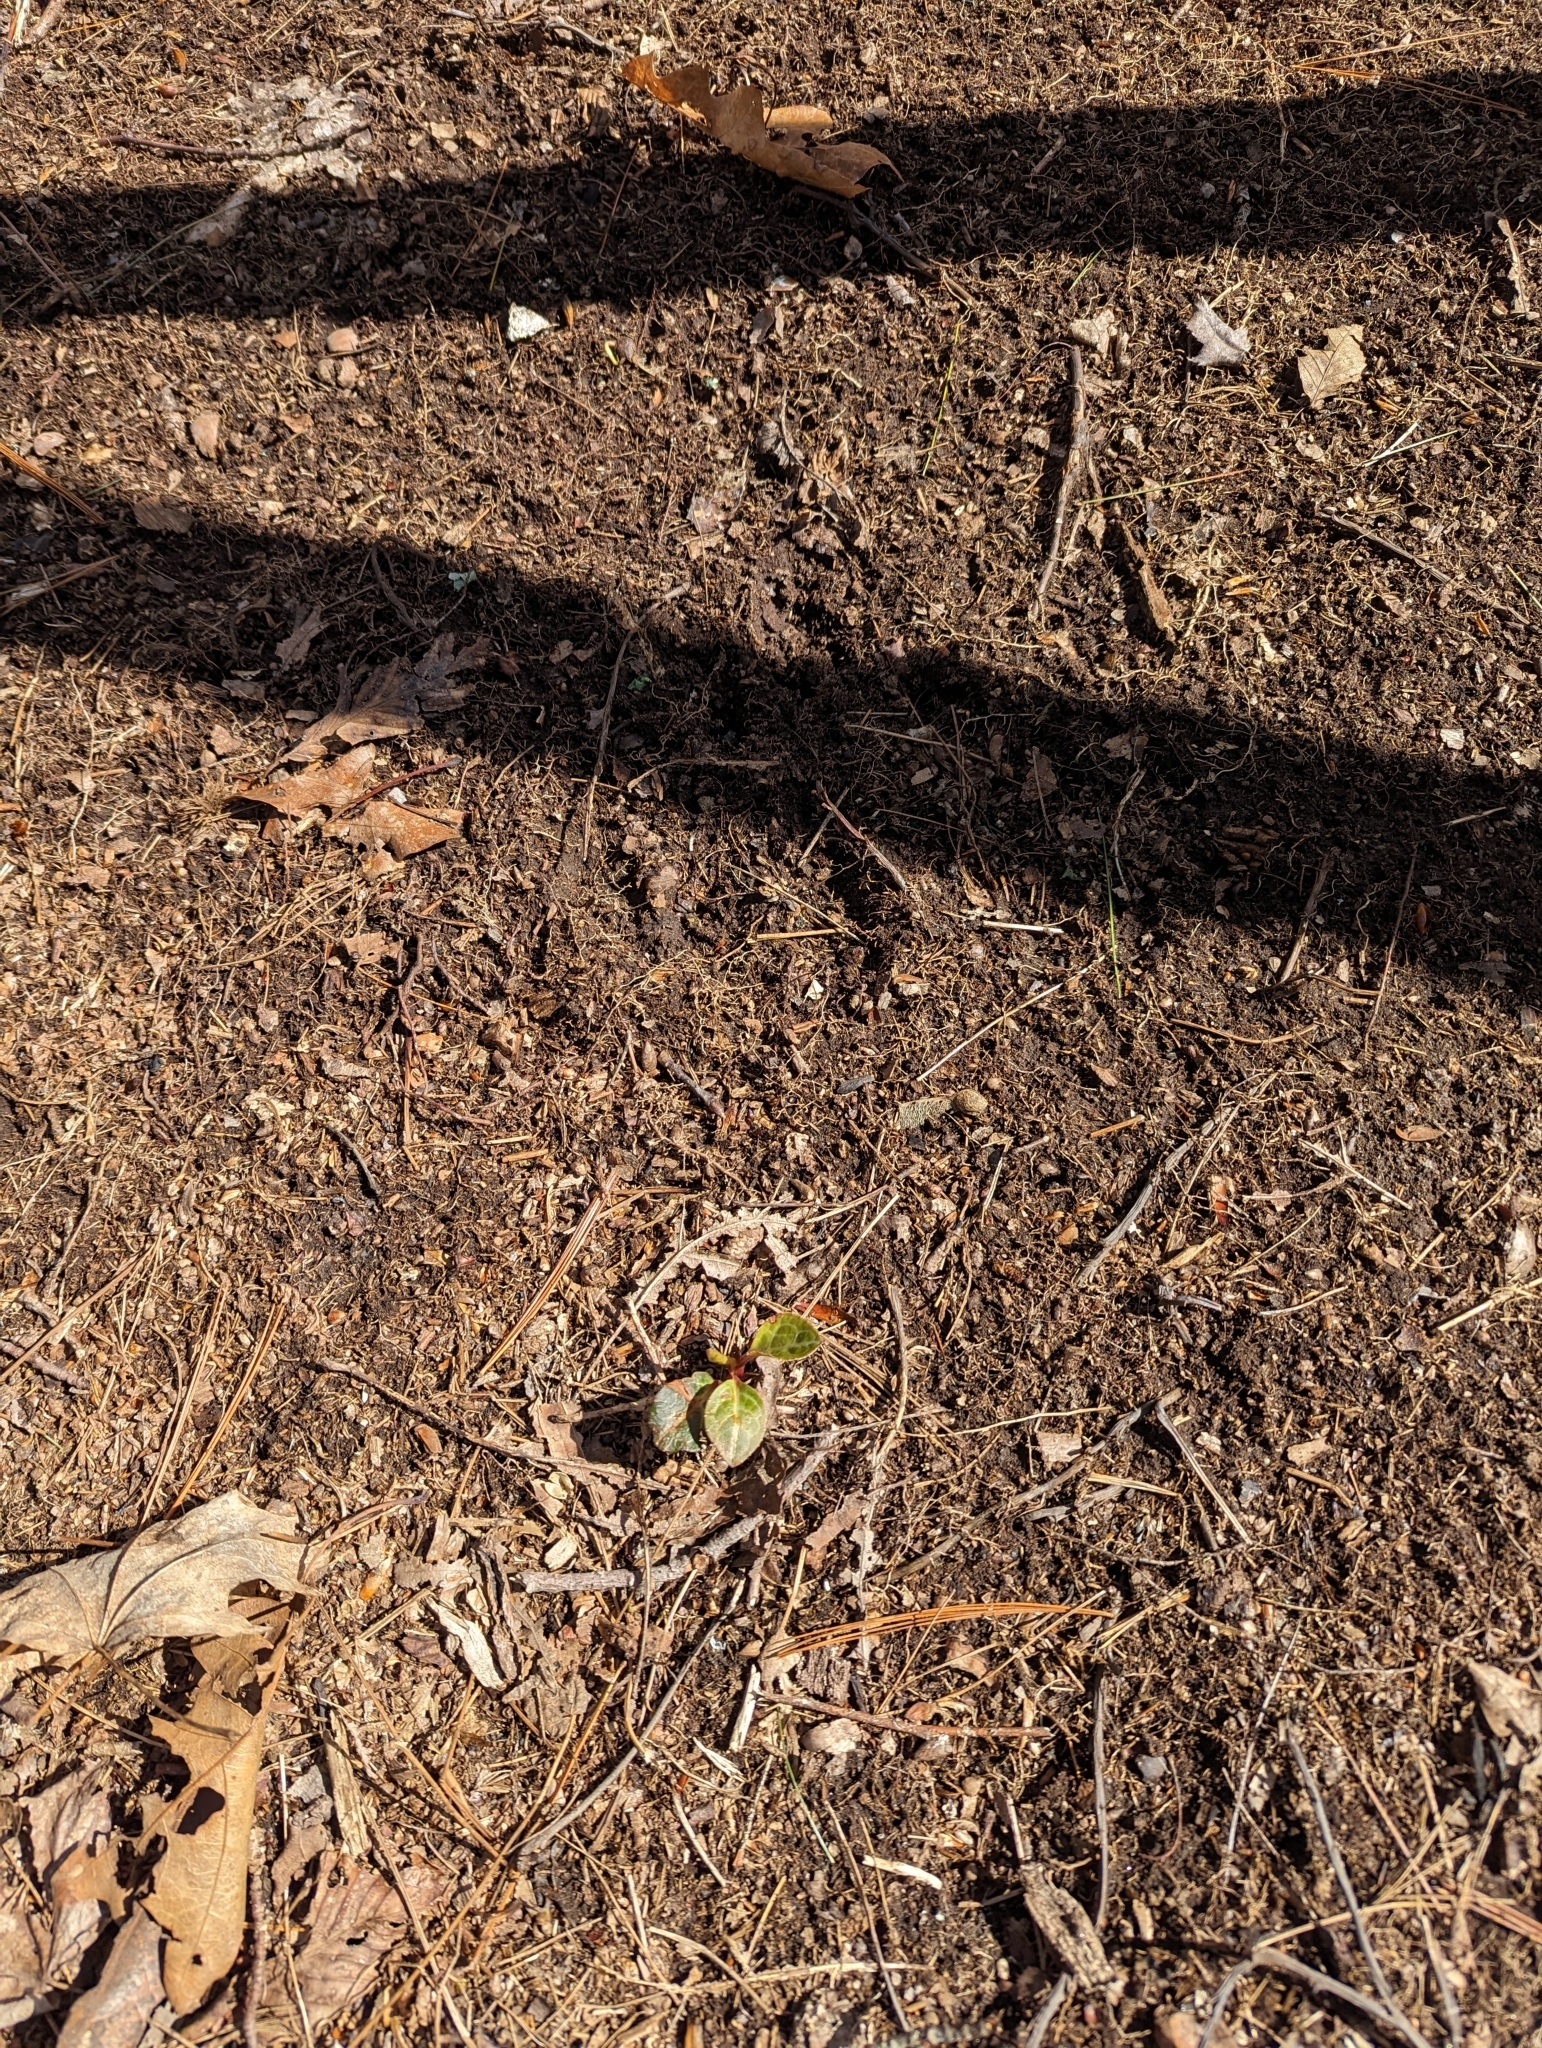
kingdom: Plantae
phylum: Tracheophyta
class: Magnoliopsida
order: Ericales
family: Ericaceae
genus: Pyrola
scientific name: Pyrola americana
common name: American wintergreen
